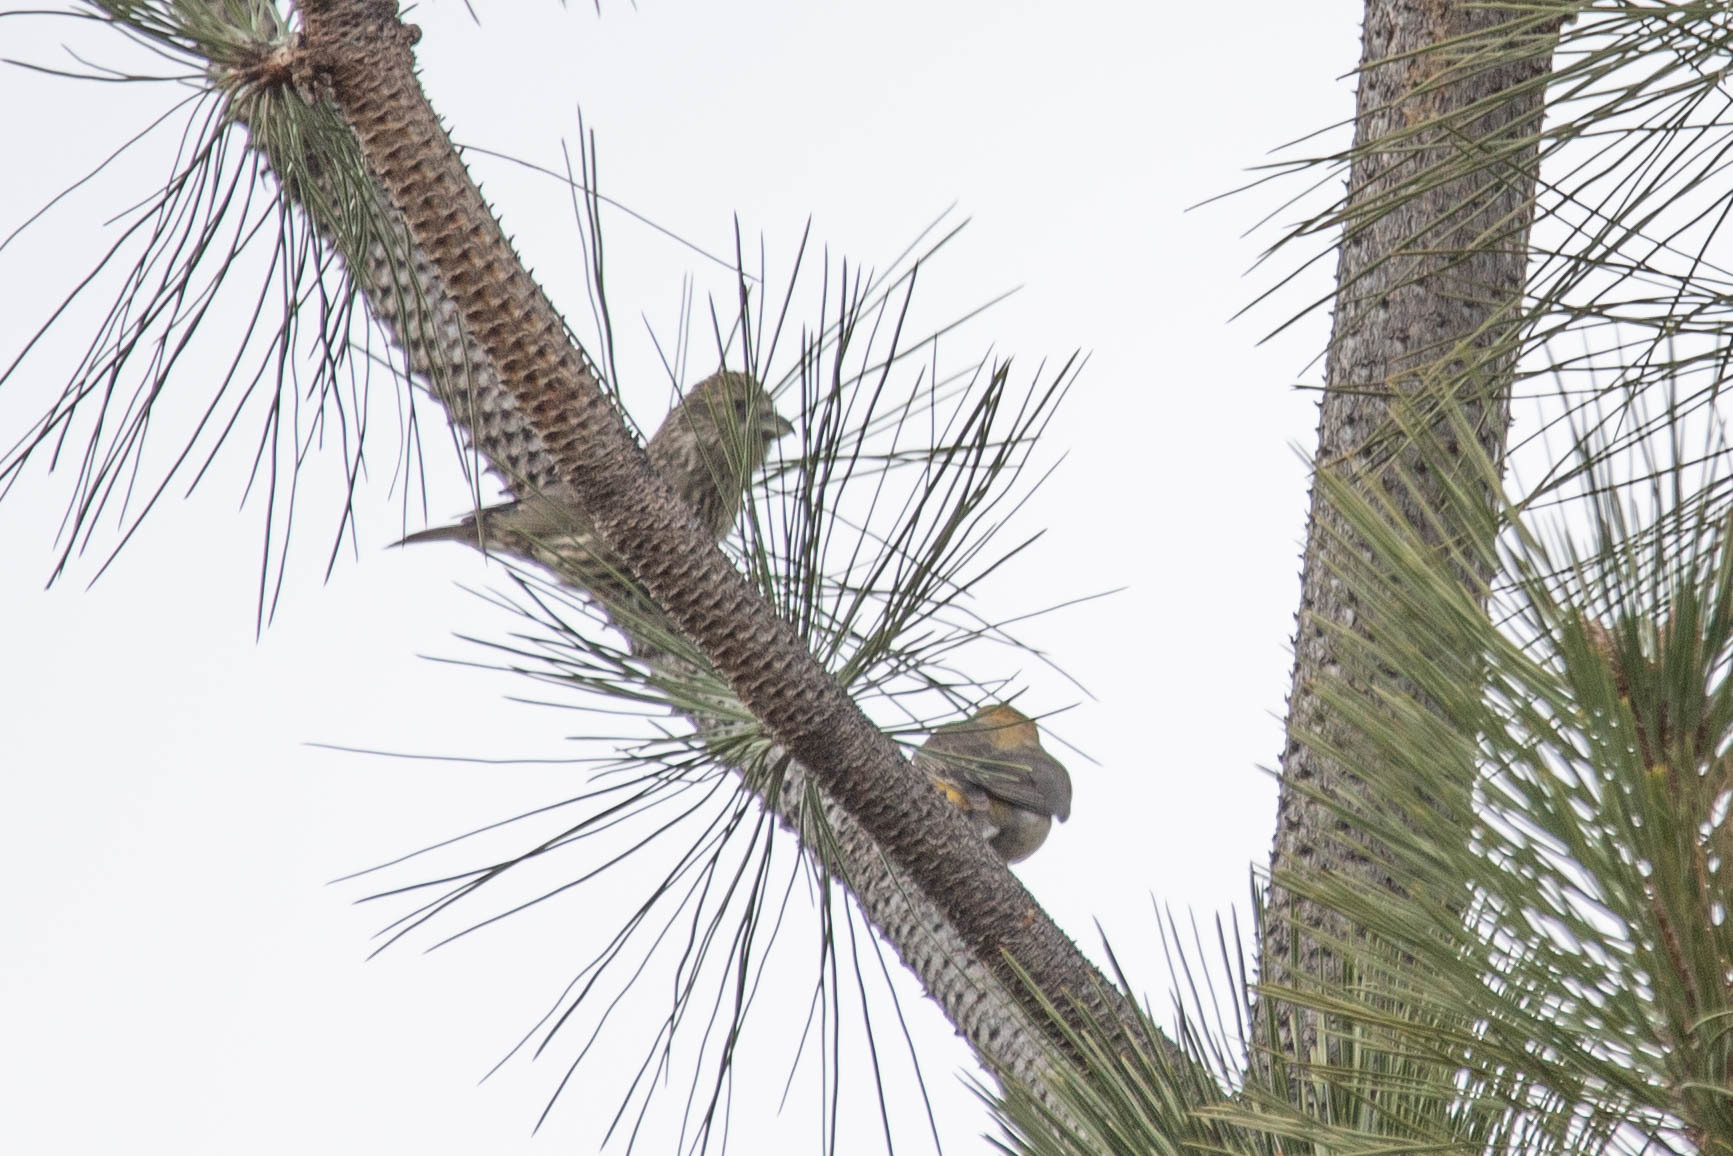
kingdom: Animalia
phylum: Chordata
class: Aves
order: Passeriformes
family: Fringillidae
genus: Loxia
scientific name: Loxia curvirostra
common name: Red crossbill
